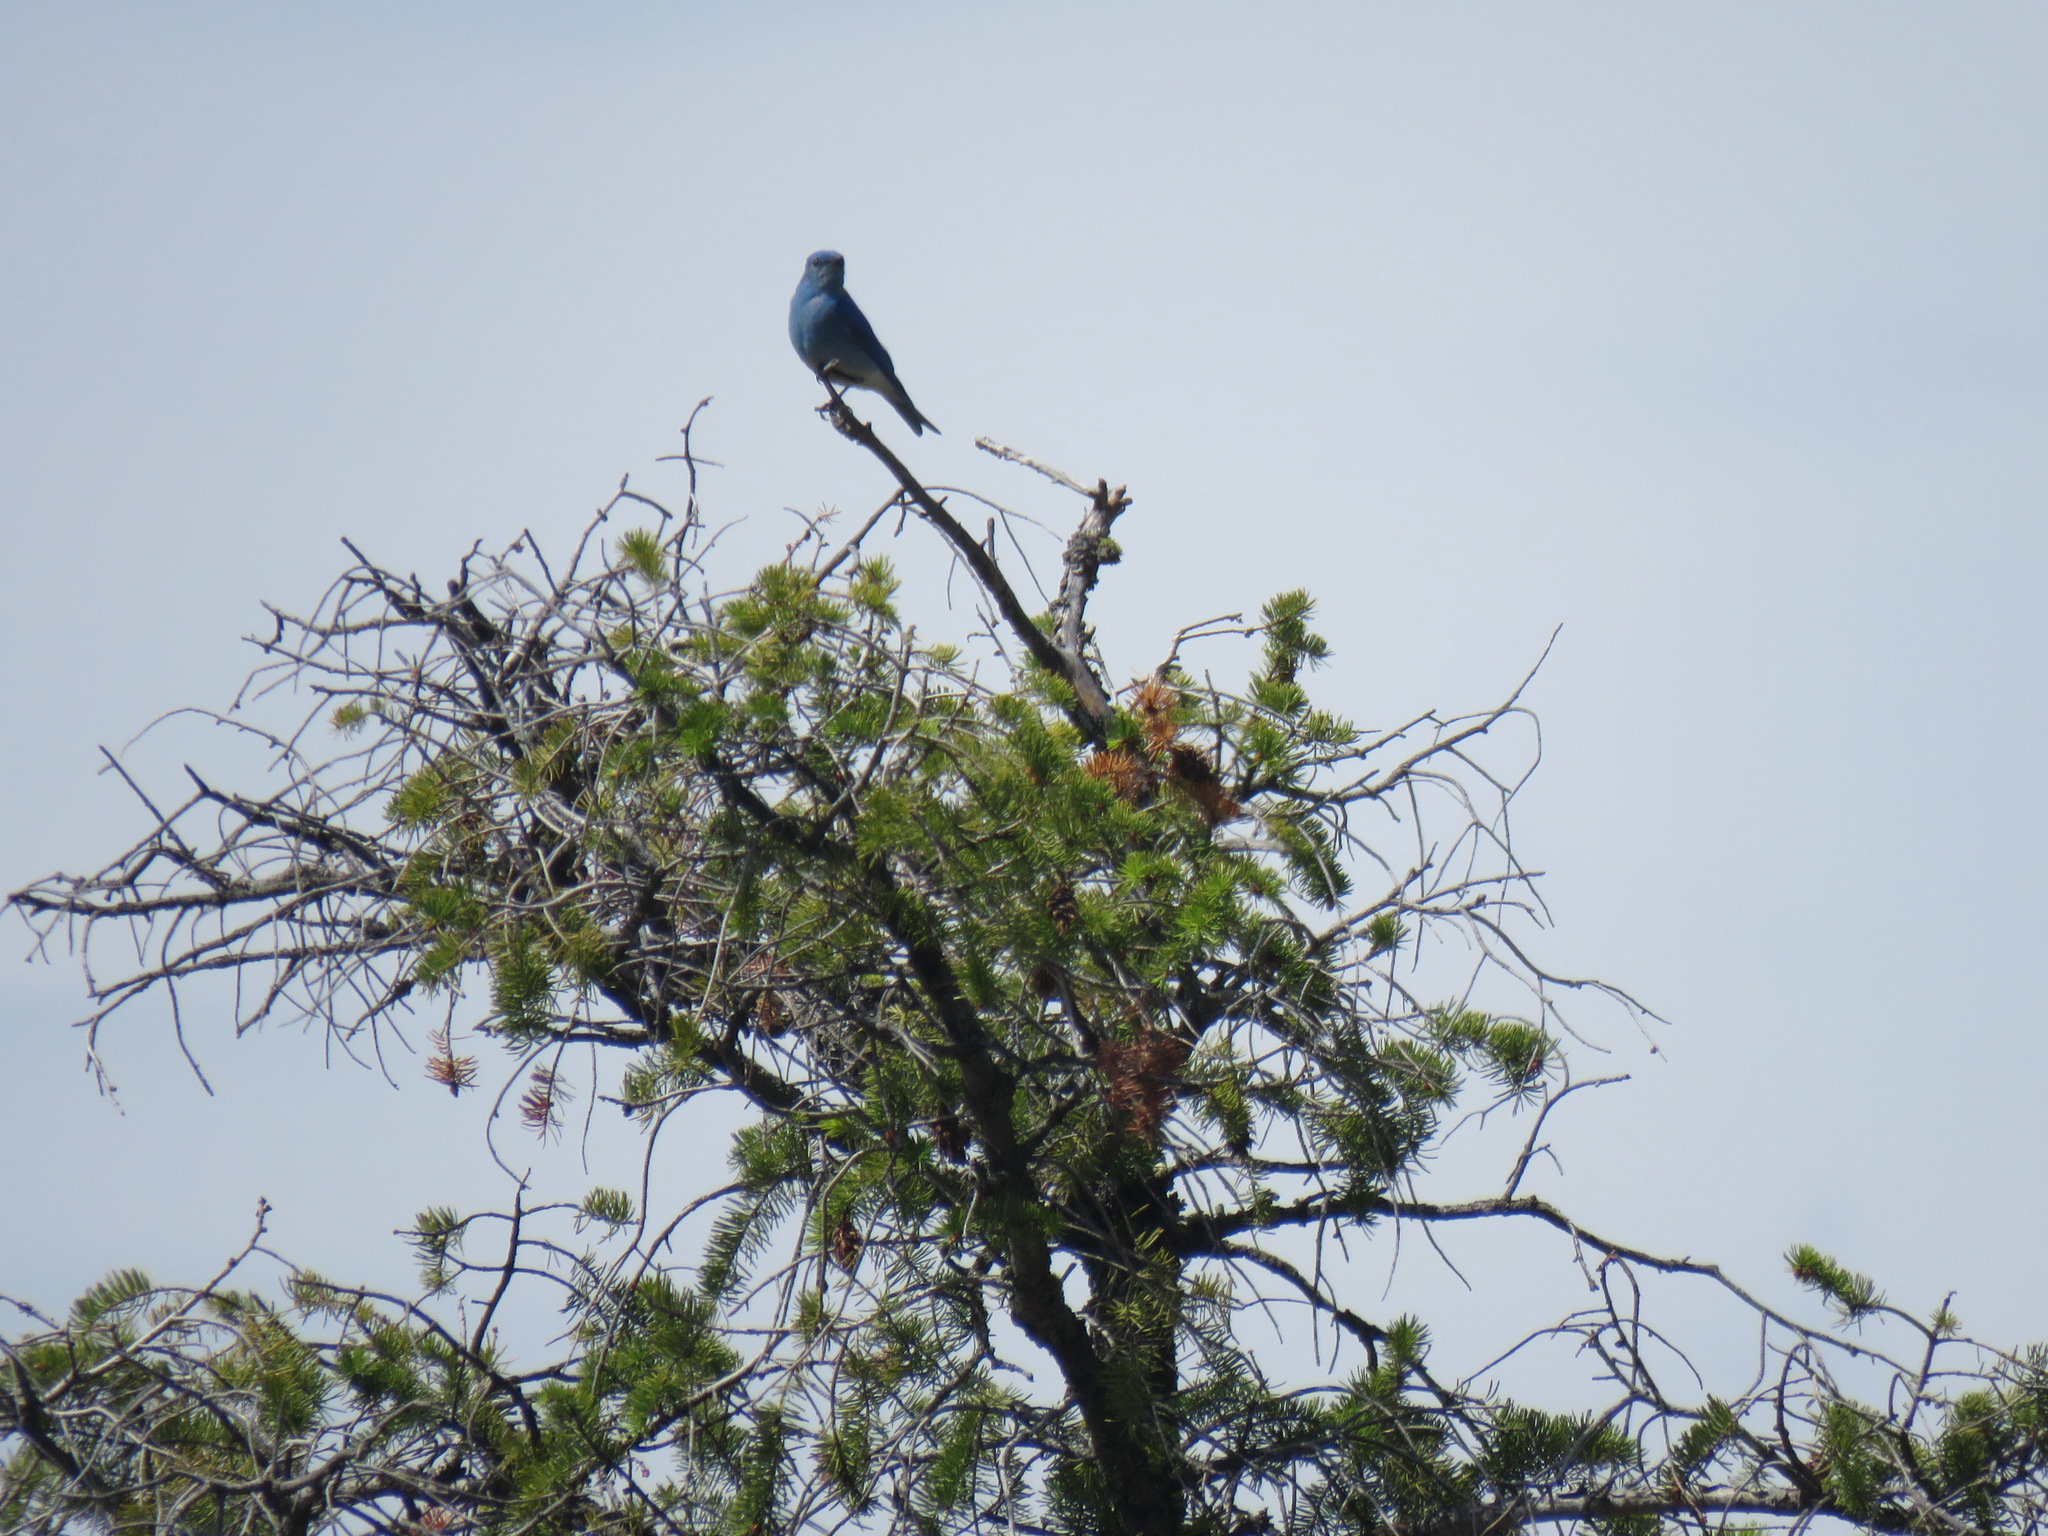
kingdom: Animalia
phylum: Chordata
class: Aves
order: Passeriformes
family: Turdidae
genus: Sialia
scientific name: Sialia currucoides
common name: Mountain bluebird
